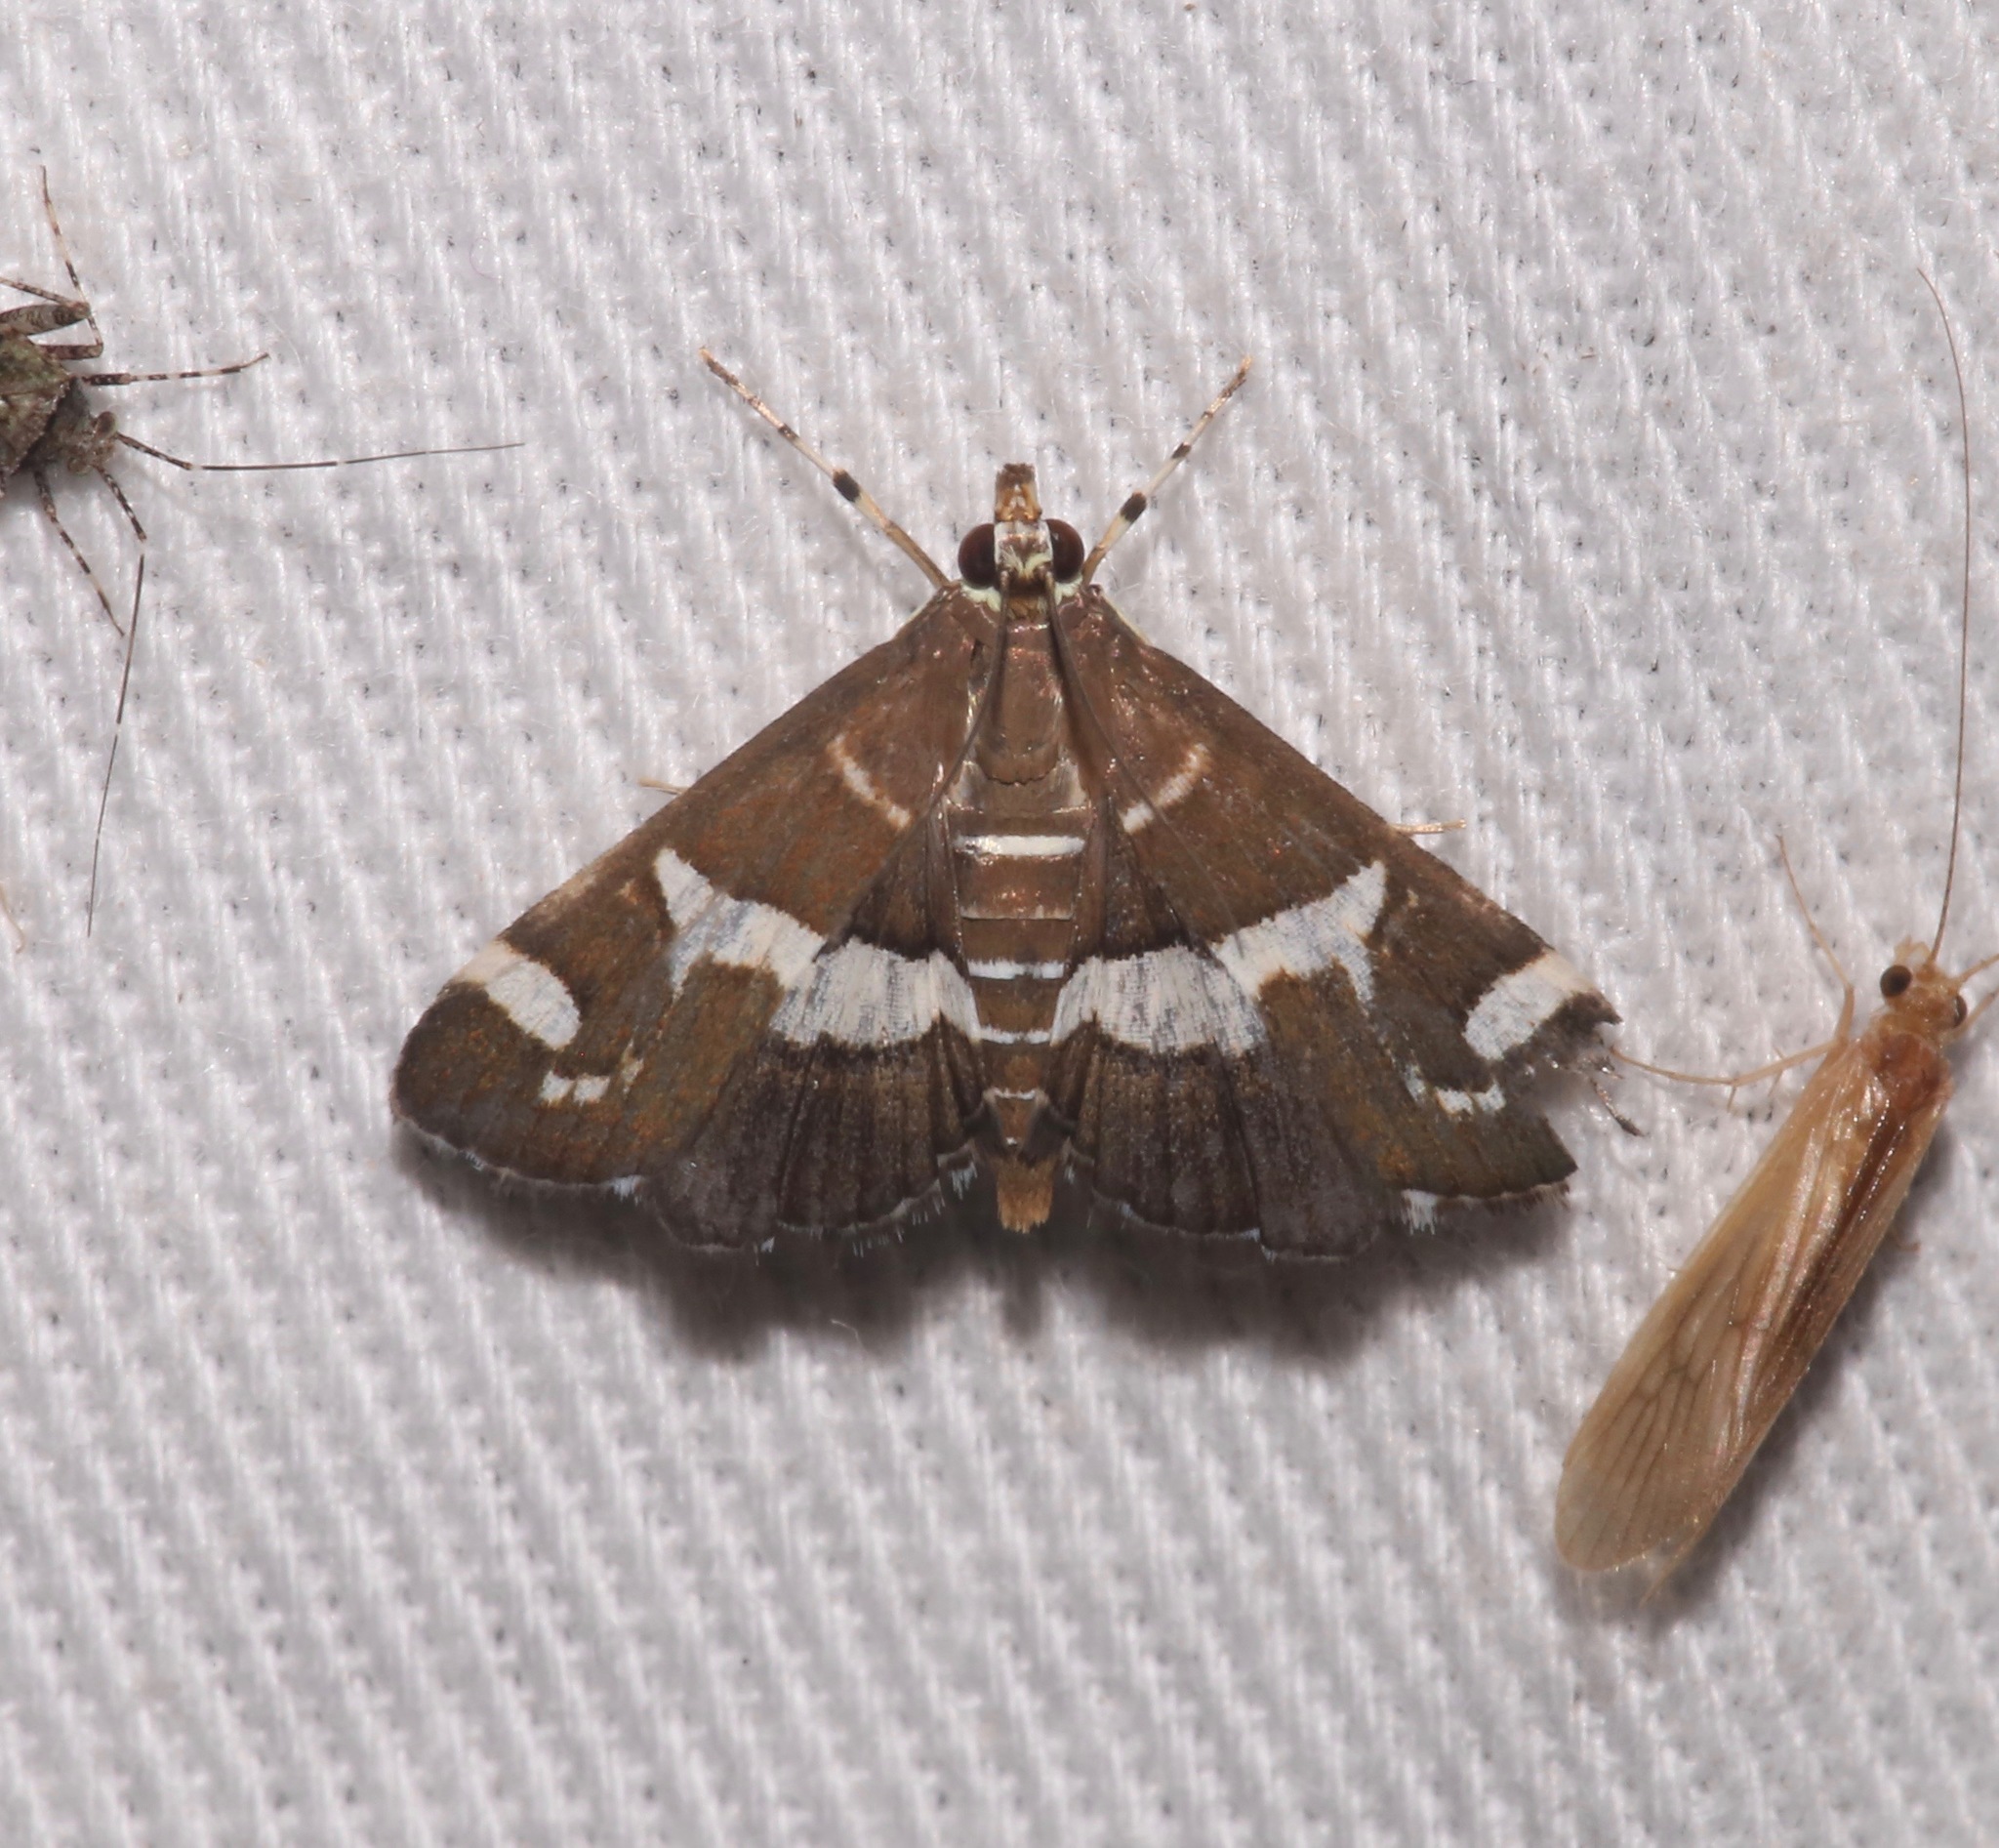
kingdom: Animalia
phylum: Arthropoda
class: Insecta
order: Lepidoptera
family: Crambidae
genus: Spoladea
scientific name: Spoladea recurvalis
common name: Beet webworm moth
